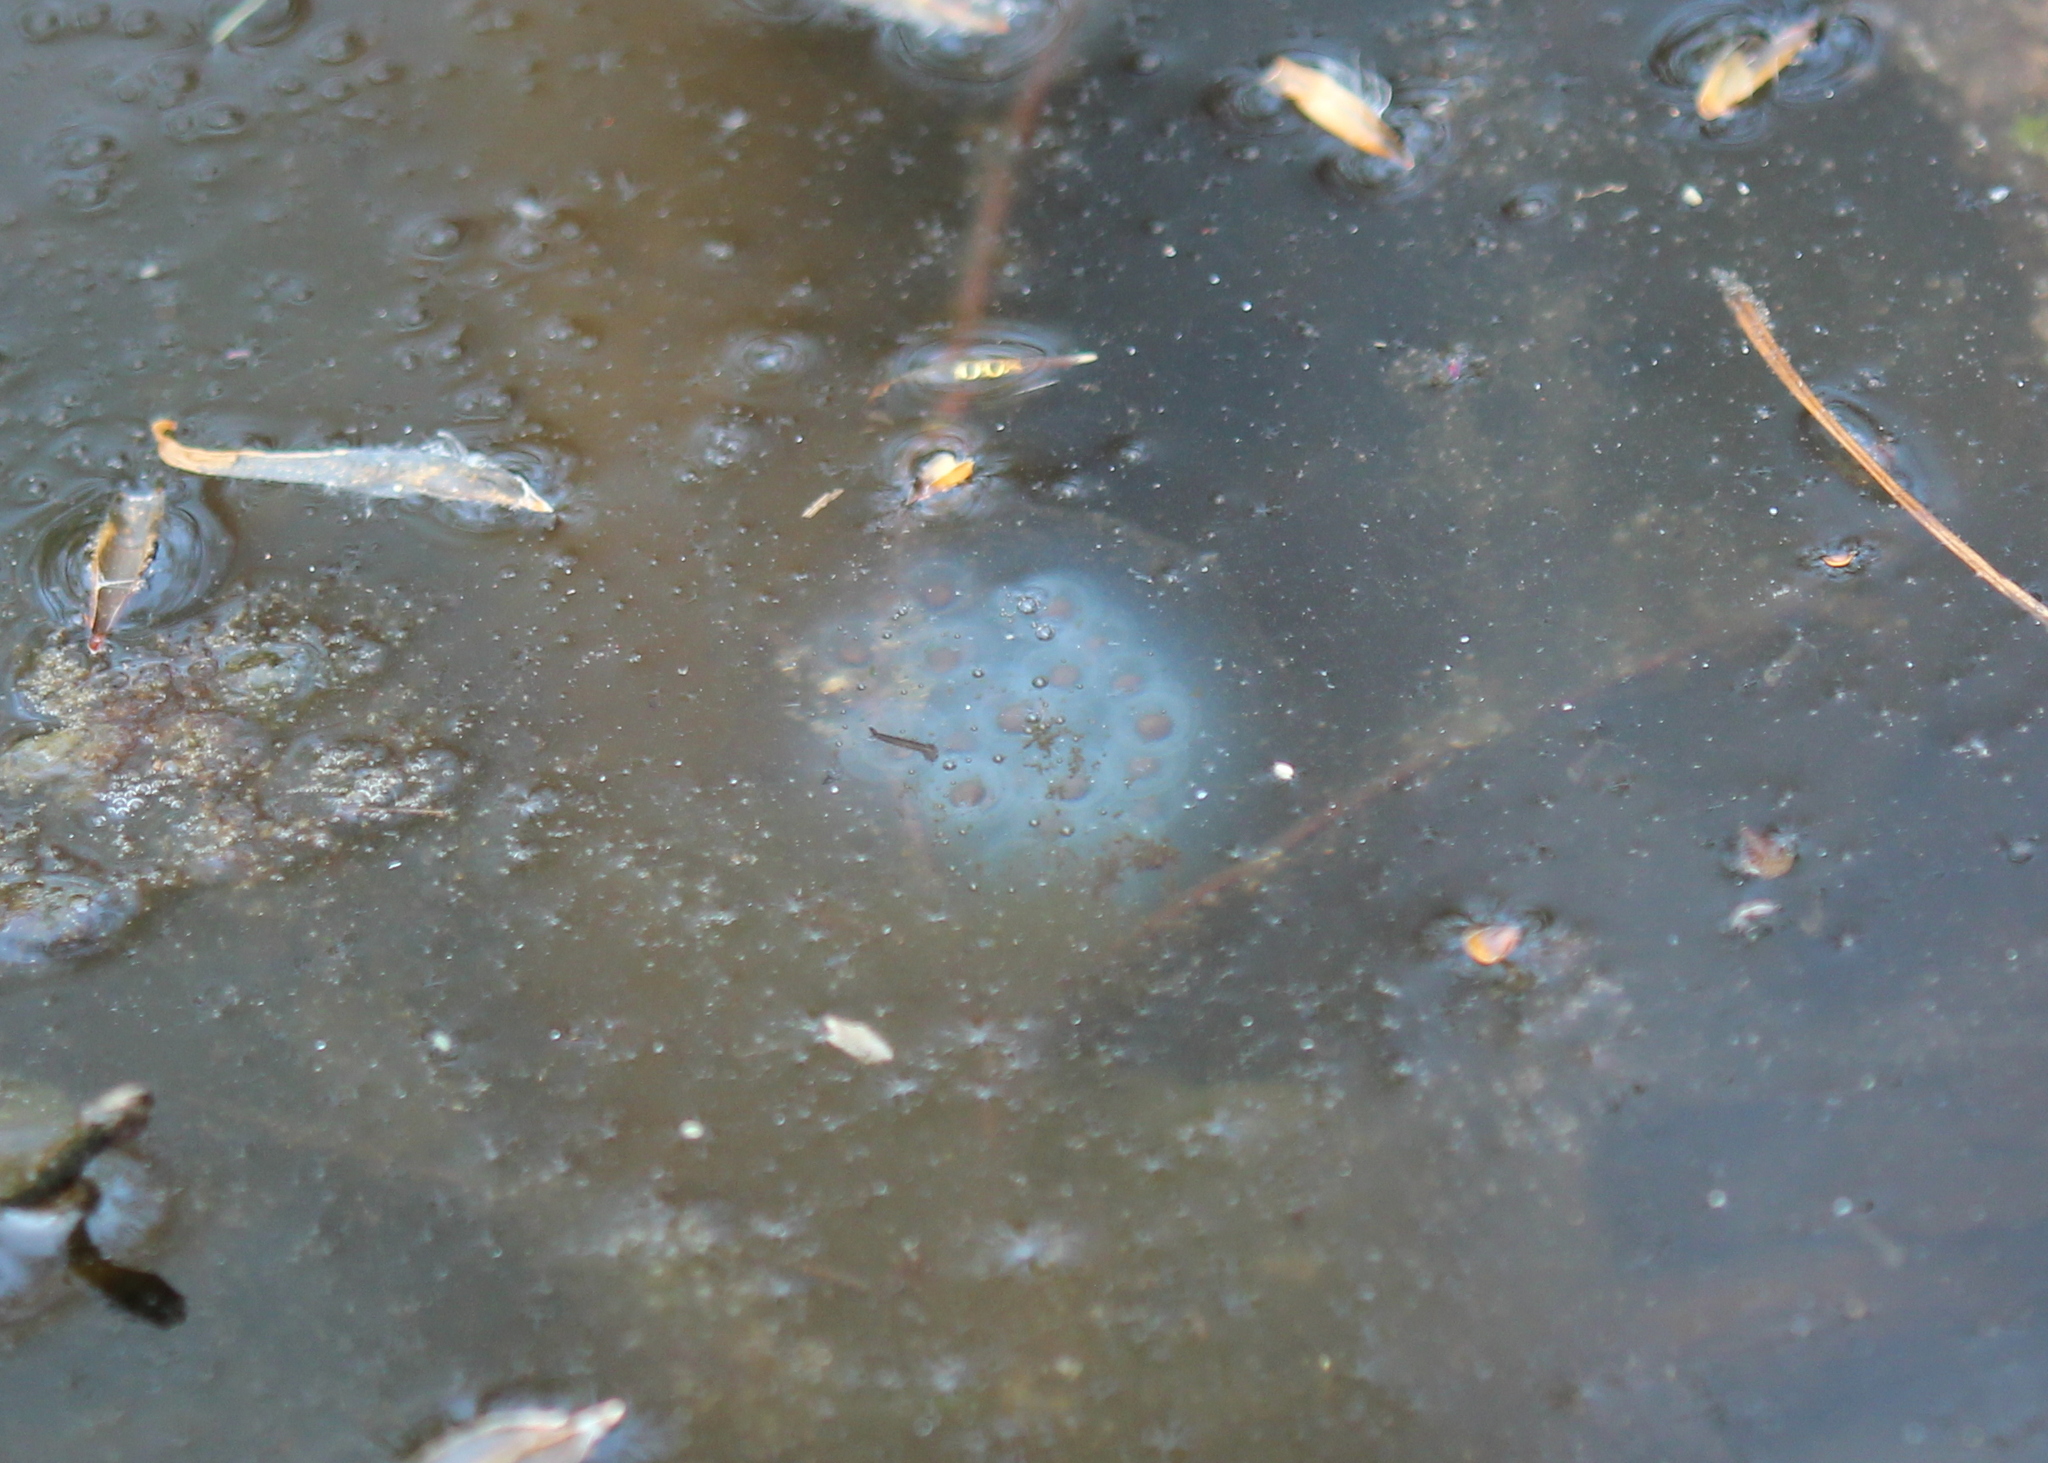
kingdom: Animalia
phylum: Chordata
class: Amphibia
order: Caudata
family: Ambystomatidae
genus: Ambystoma
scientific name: Ambystoma maculatum
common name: Spotted salamander
